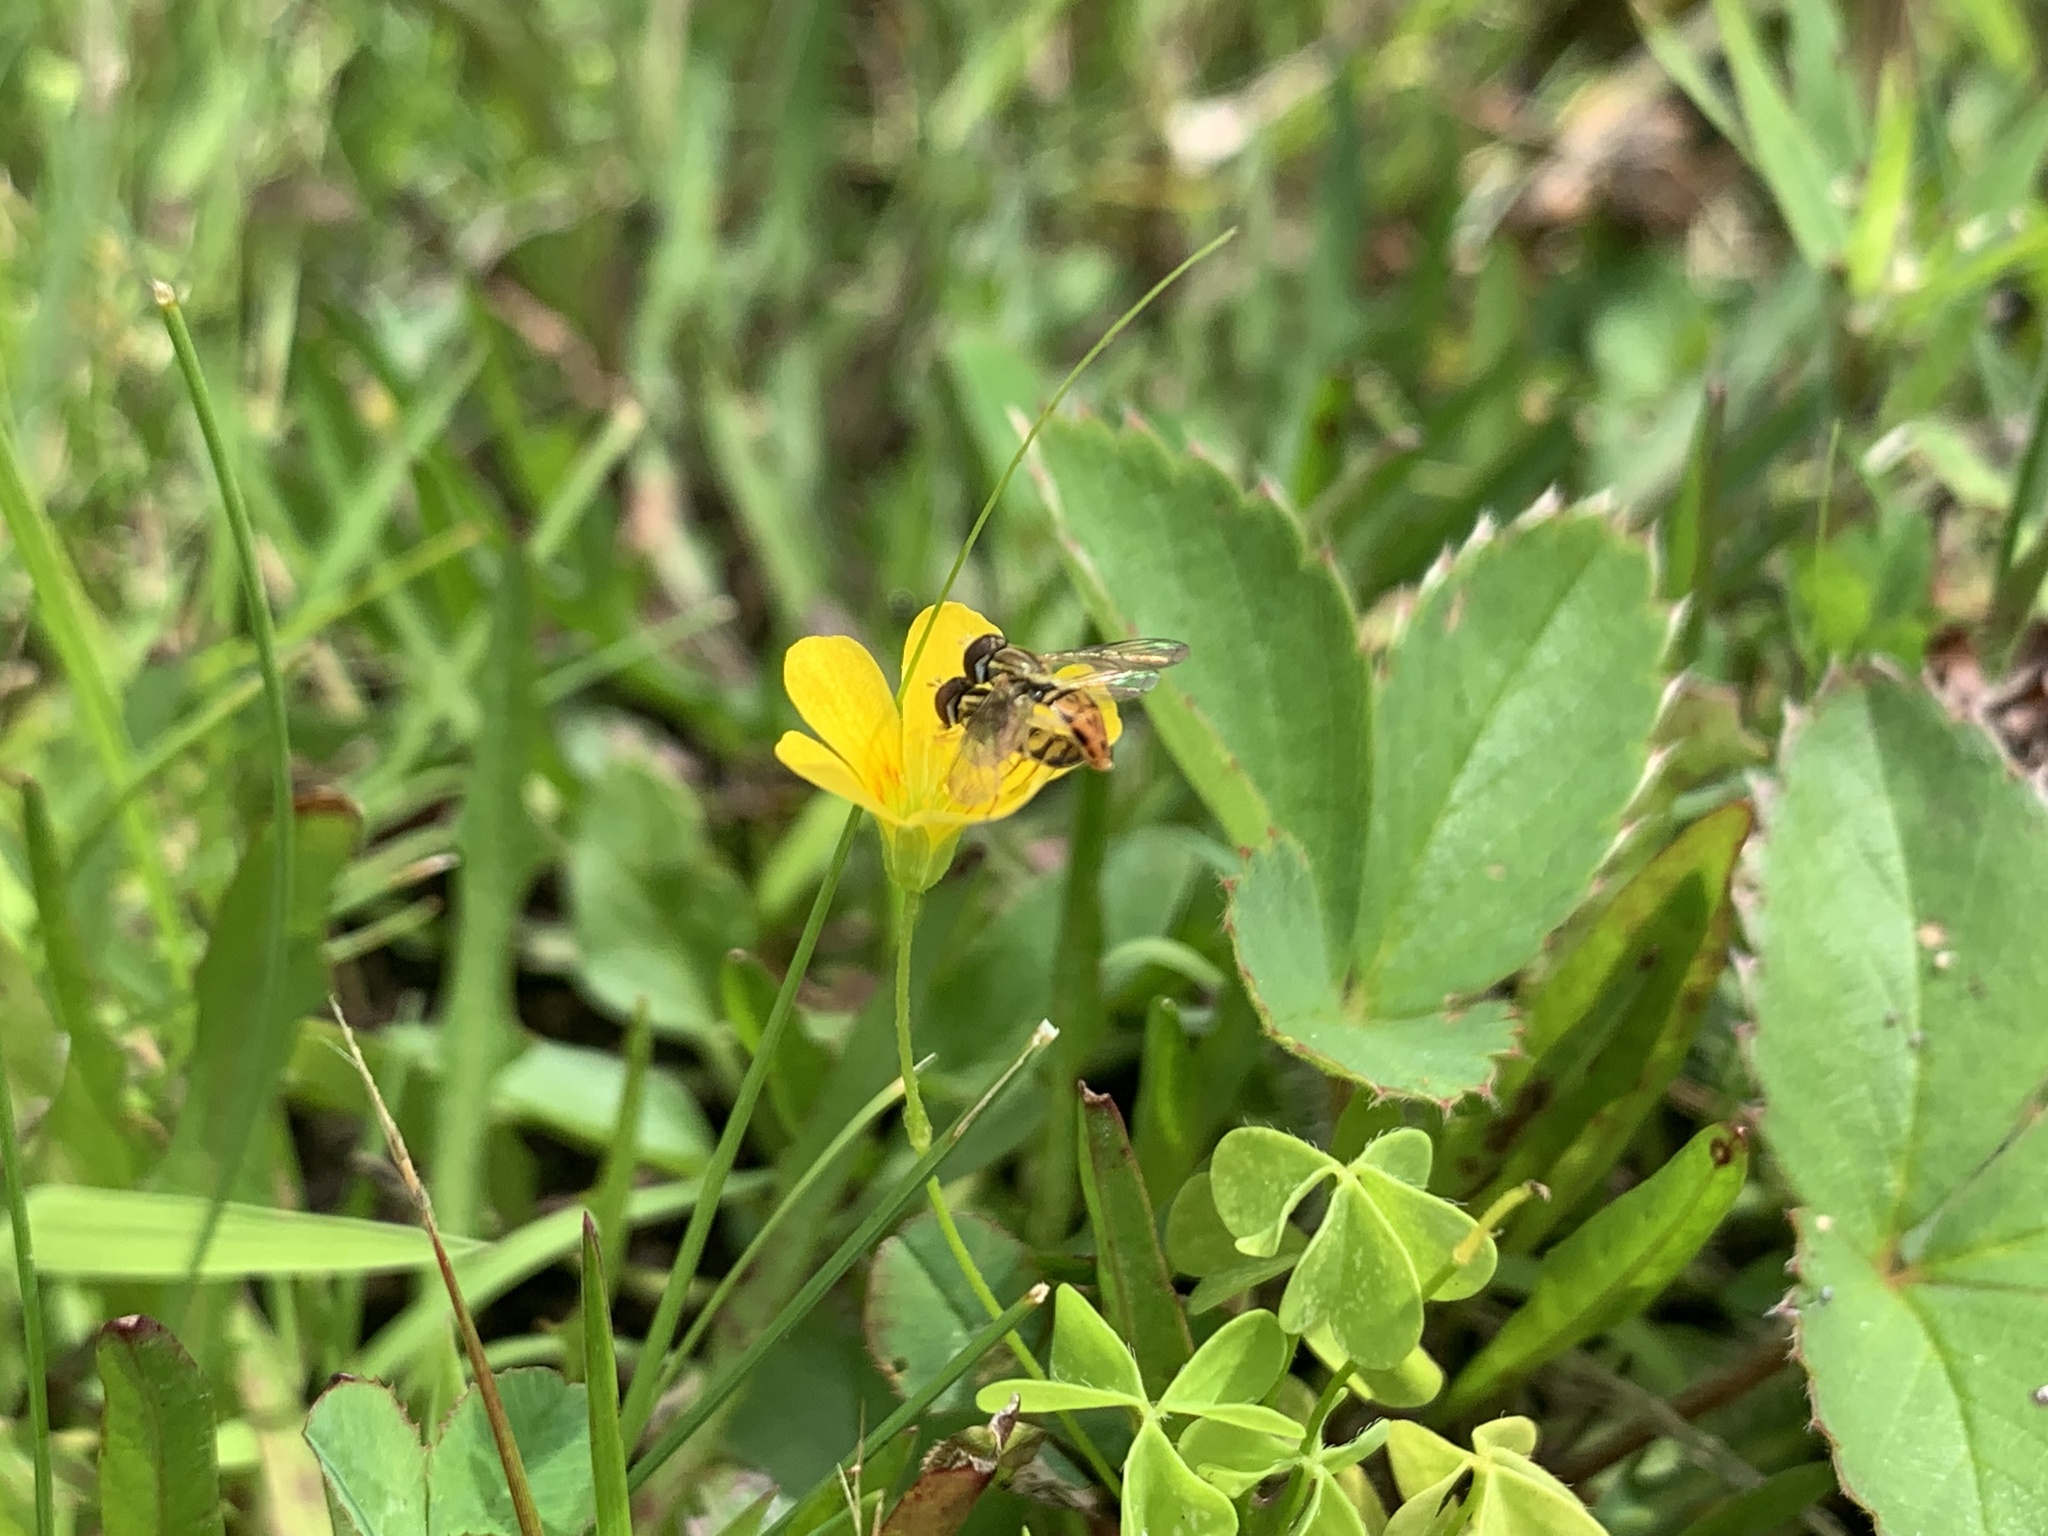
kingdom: Animalia
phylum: Arthropoda
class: Insecta
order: Diptera
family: Syrphidae
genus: Toxomerus
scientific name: Toxomerus marginatus
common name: Syrphid fly
